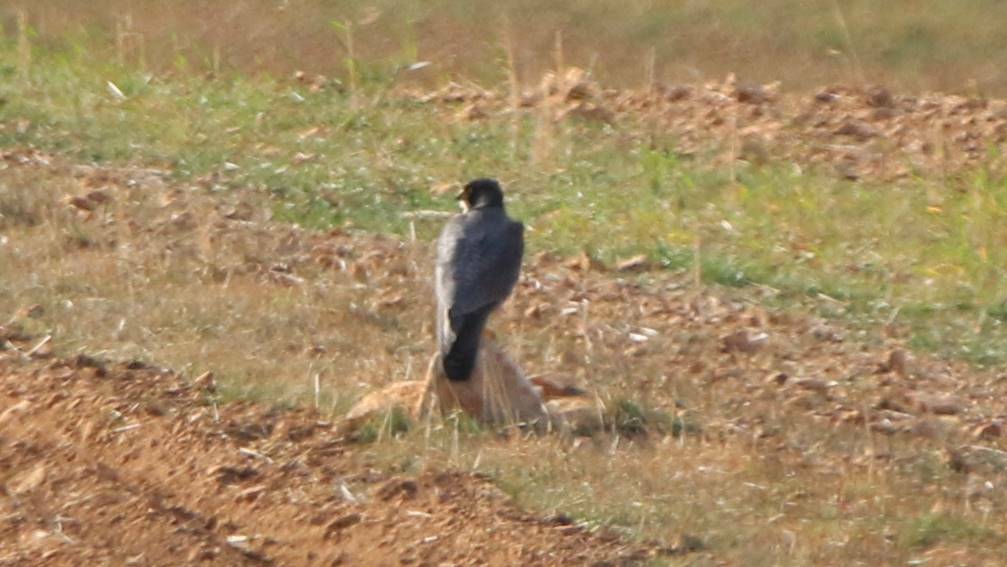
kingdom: Animalia
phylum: Chordata
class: Aves
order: Falconiformes
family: Falconidae
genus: Falco
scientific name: Falco peregrinus
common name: Peregrine falcon
